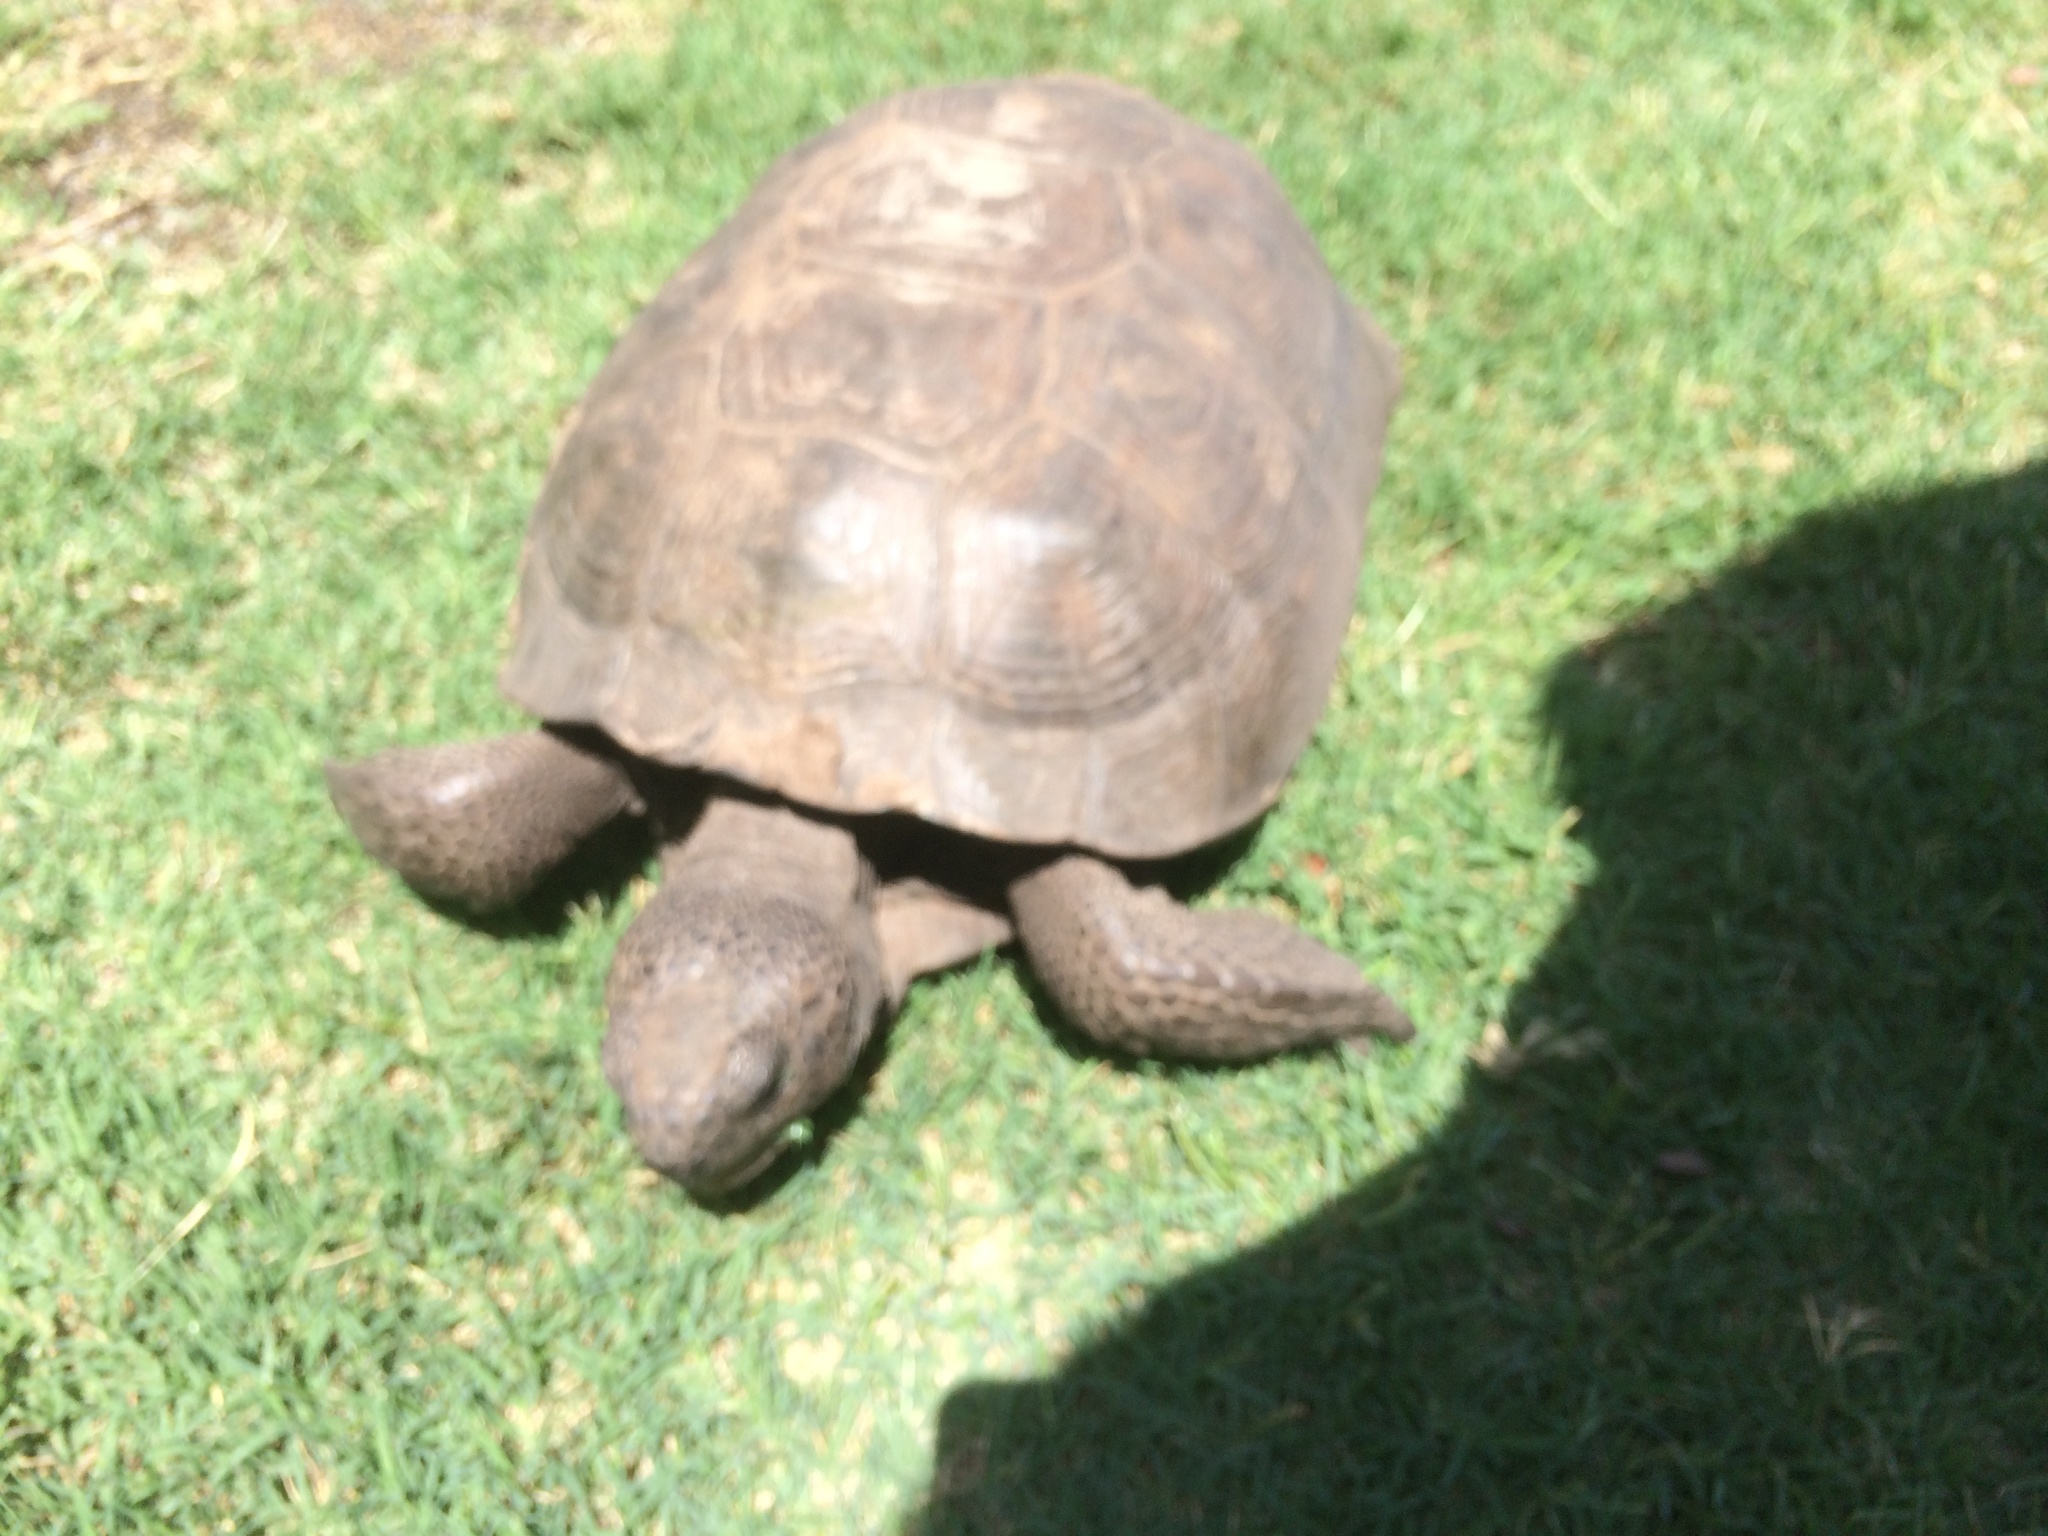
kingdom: Animalia
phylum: Chordata
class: Testudines
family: Testudinidae
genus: Gopherus
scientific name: Gopherus polyphemus
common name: Florida gopher tortoise
